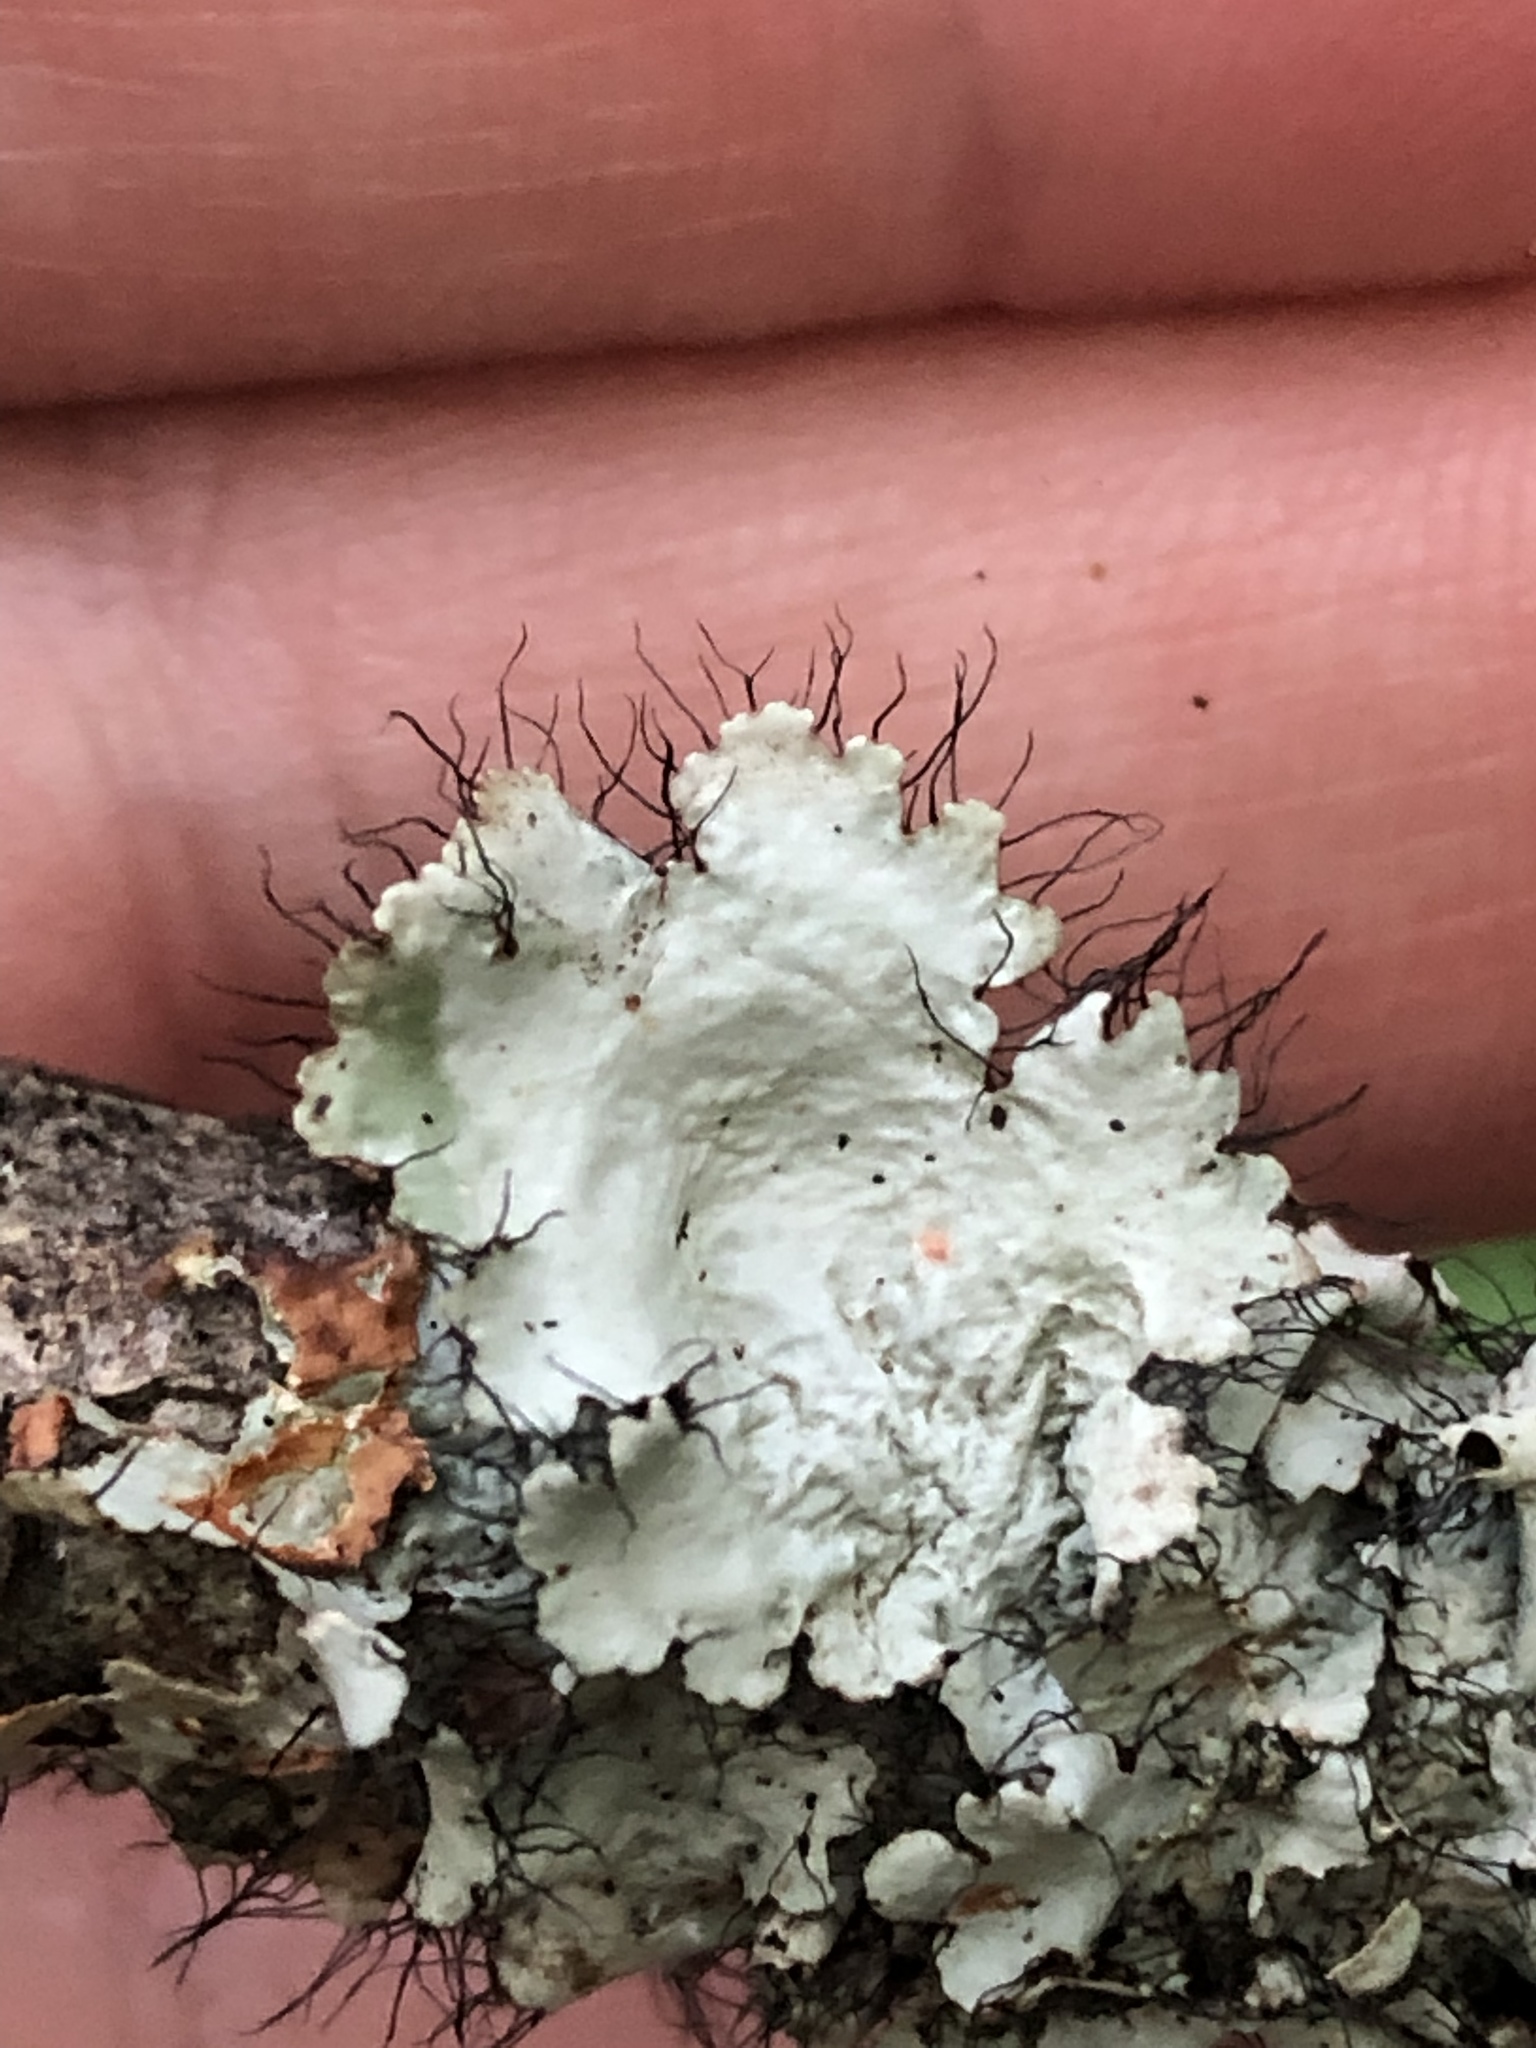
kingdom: Fungi
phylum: Ascomycota
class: Lecanoromycetes
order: Lecanorales
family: Parmeliaceae
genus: Parmotrema
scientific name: Parmotrema hypotropum
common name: Powdered ruffle lichen
